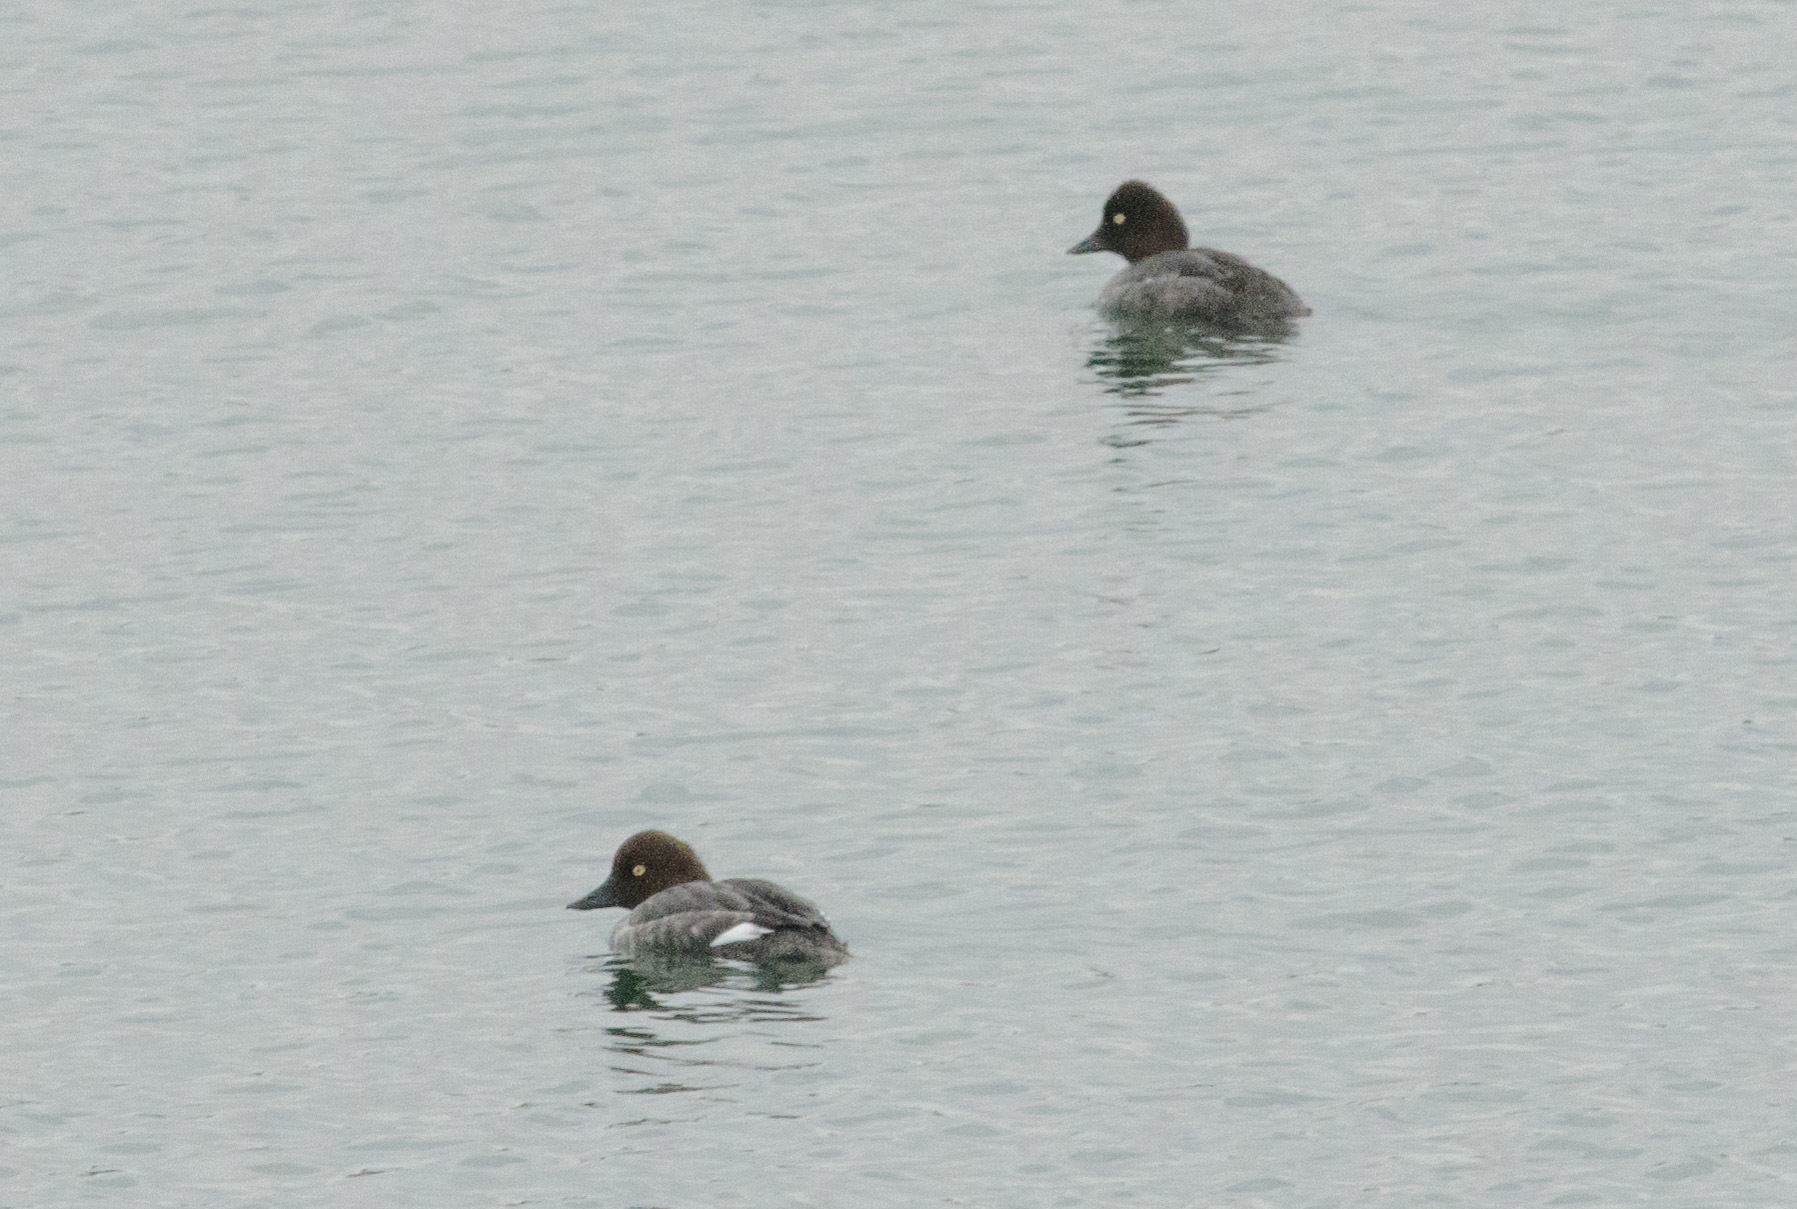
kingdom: Animalia
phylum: Chordata
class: Aves
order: Anseriformes
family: Anatidae
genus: Bucephala
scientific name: Bucephala clangula
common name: Common goldeneye
